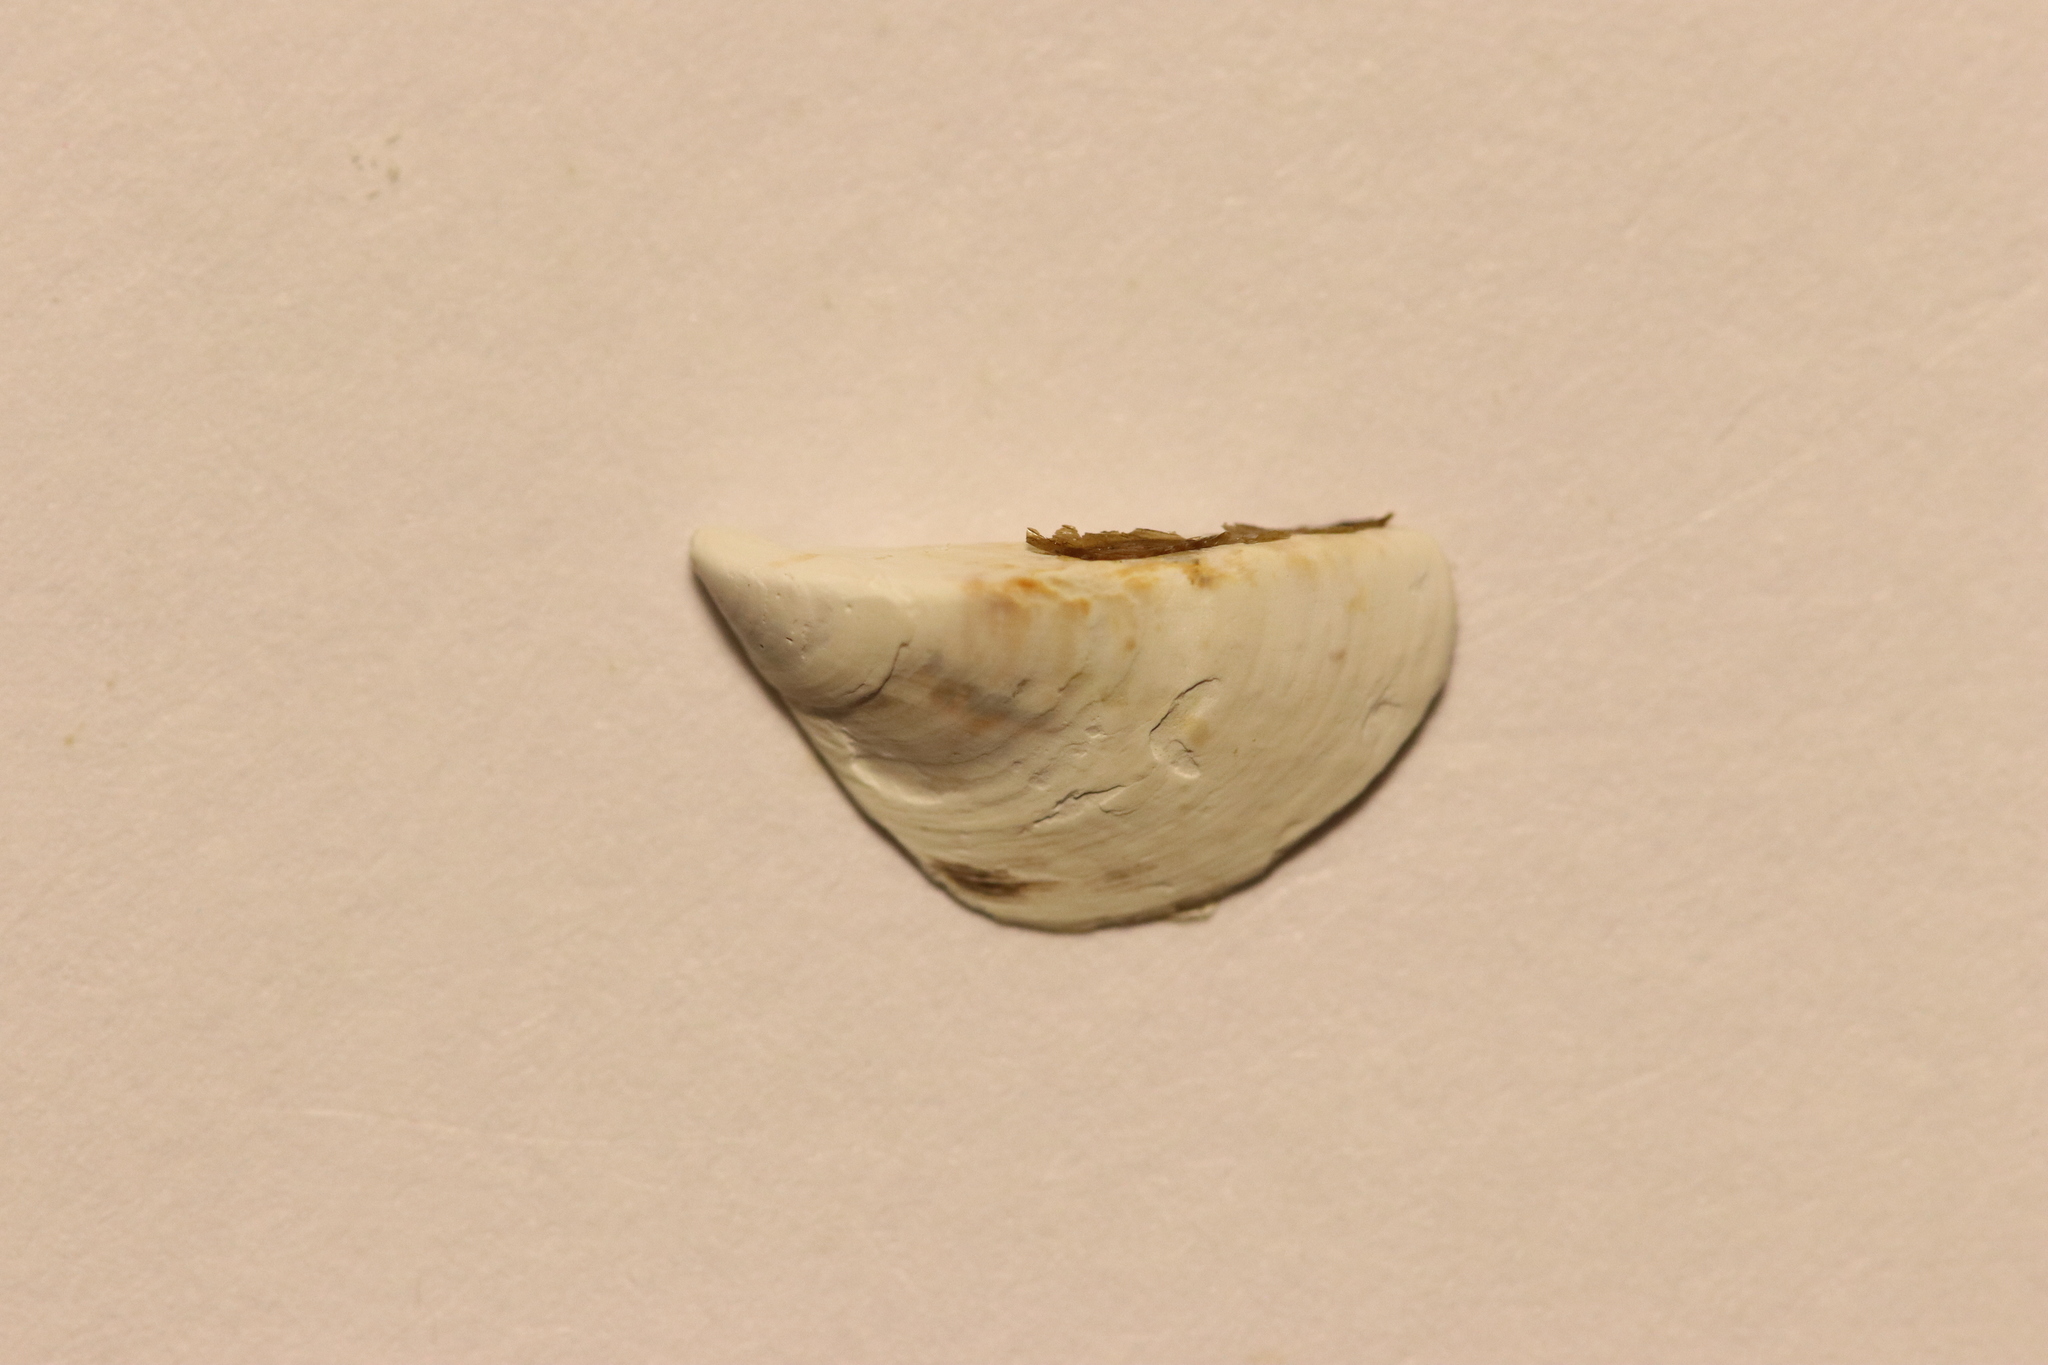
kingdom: Animalia
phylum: Mollusca
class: Bivalvia
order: Myida
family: Dreissenidae
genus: Dreissena
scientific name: Dreissena polymorpha
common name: Zebra mussel
